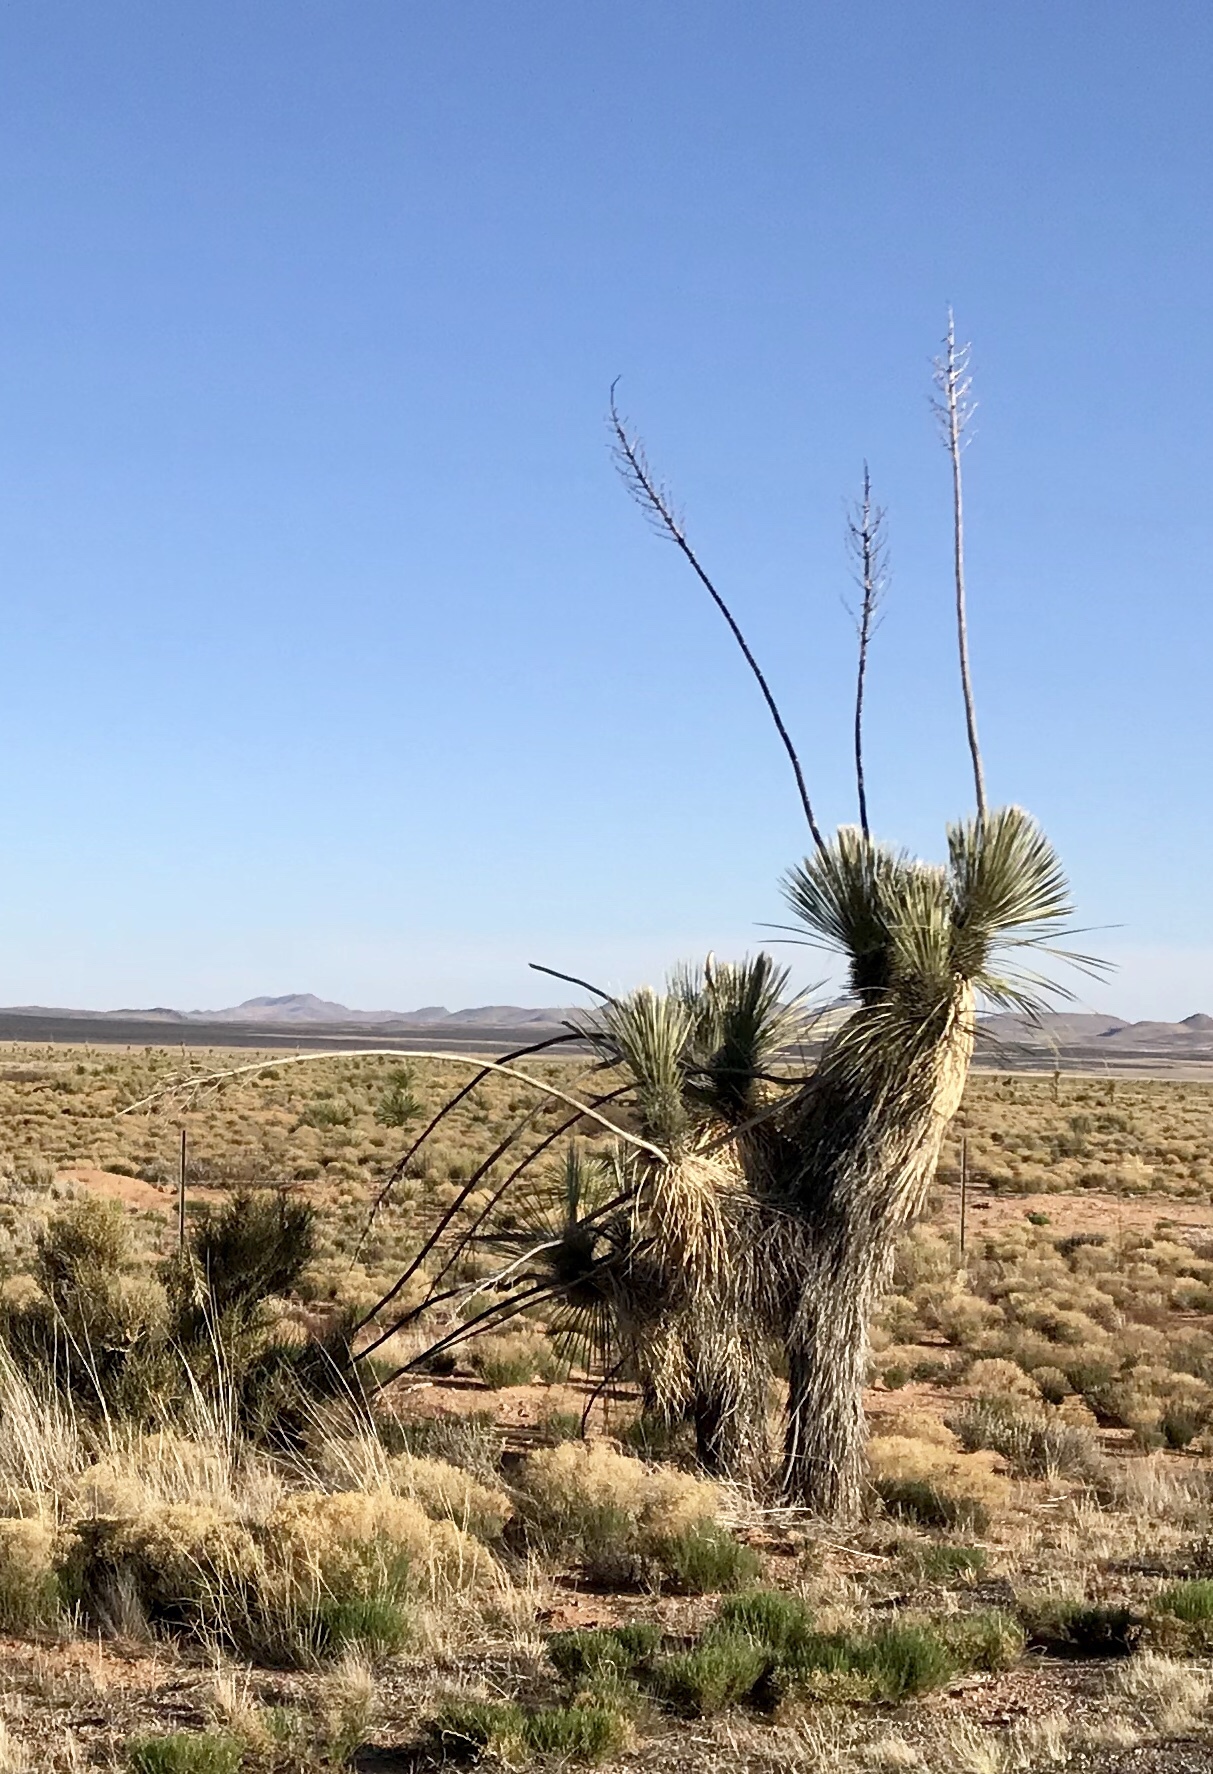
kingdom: Plantae
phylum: Tracheophyta
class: Liliopsida
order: Asparagales
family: Asparagaceae
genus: Yucca
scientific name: Yucca elata
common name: Palmella
